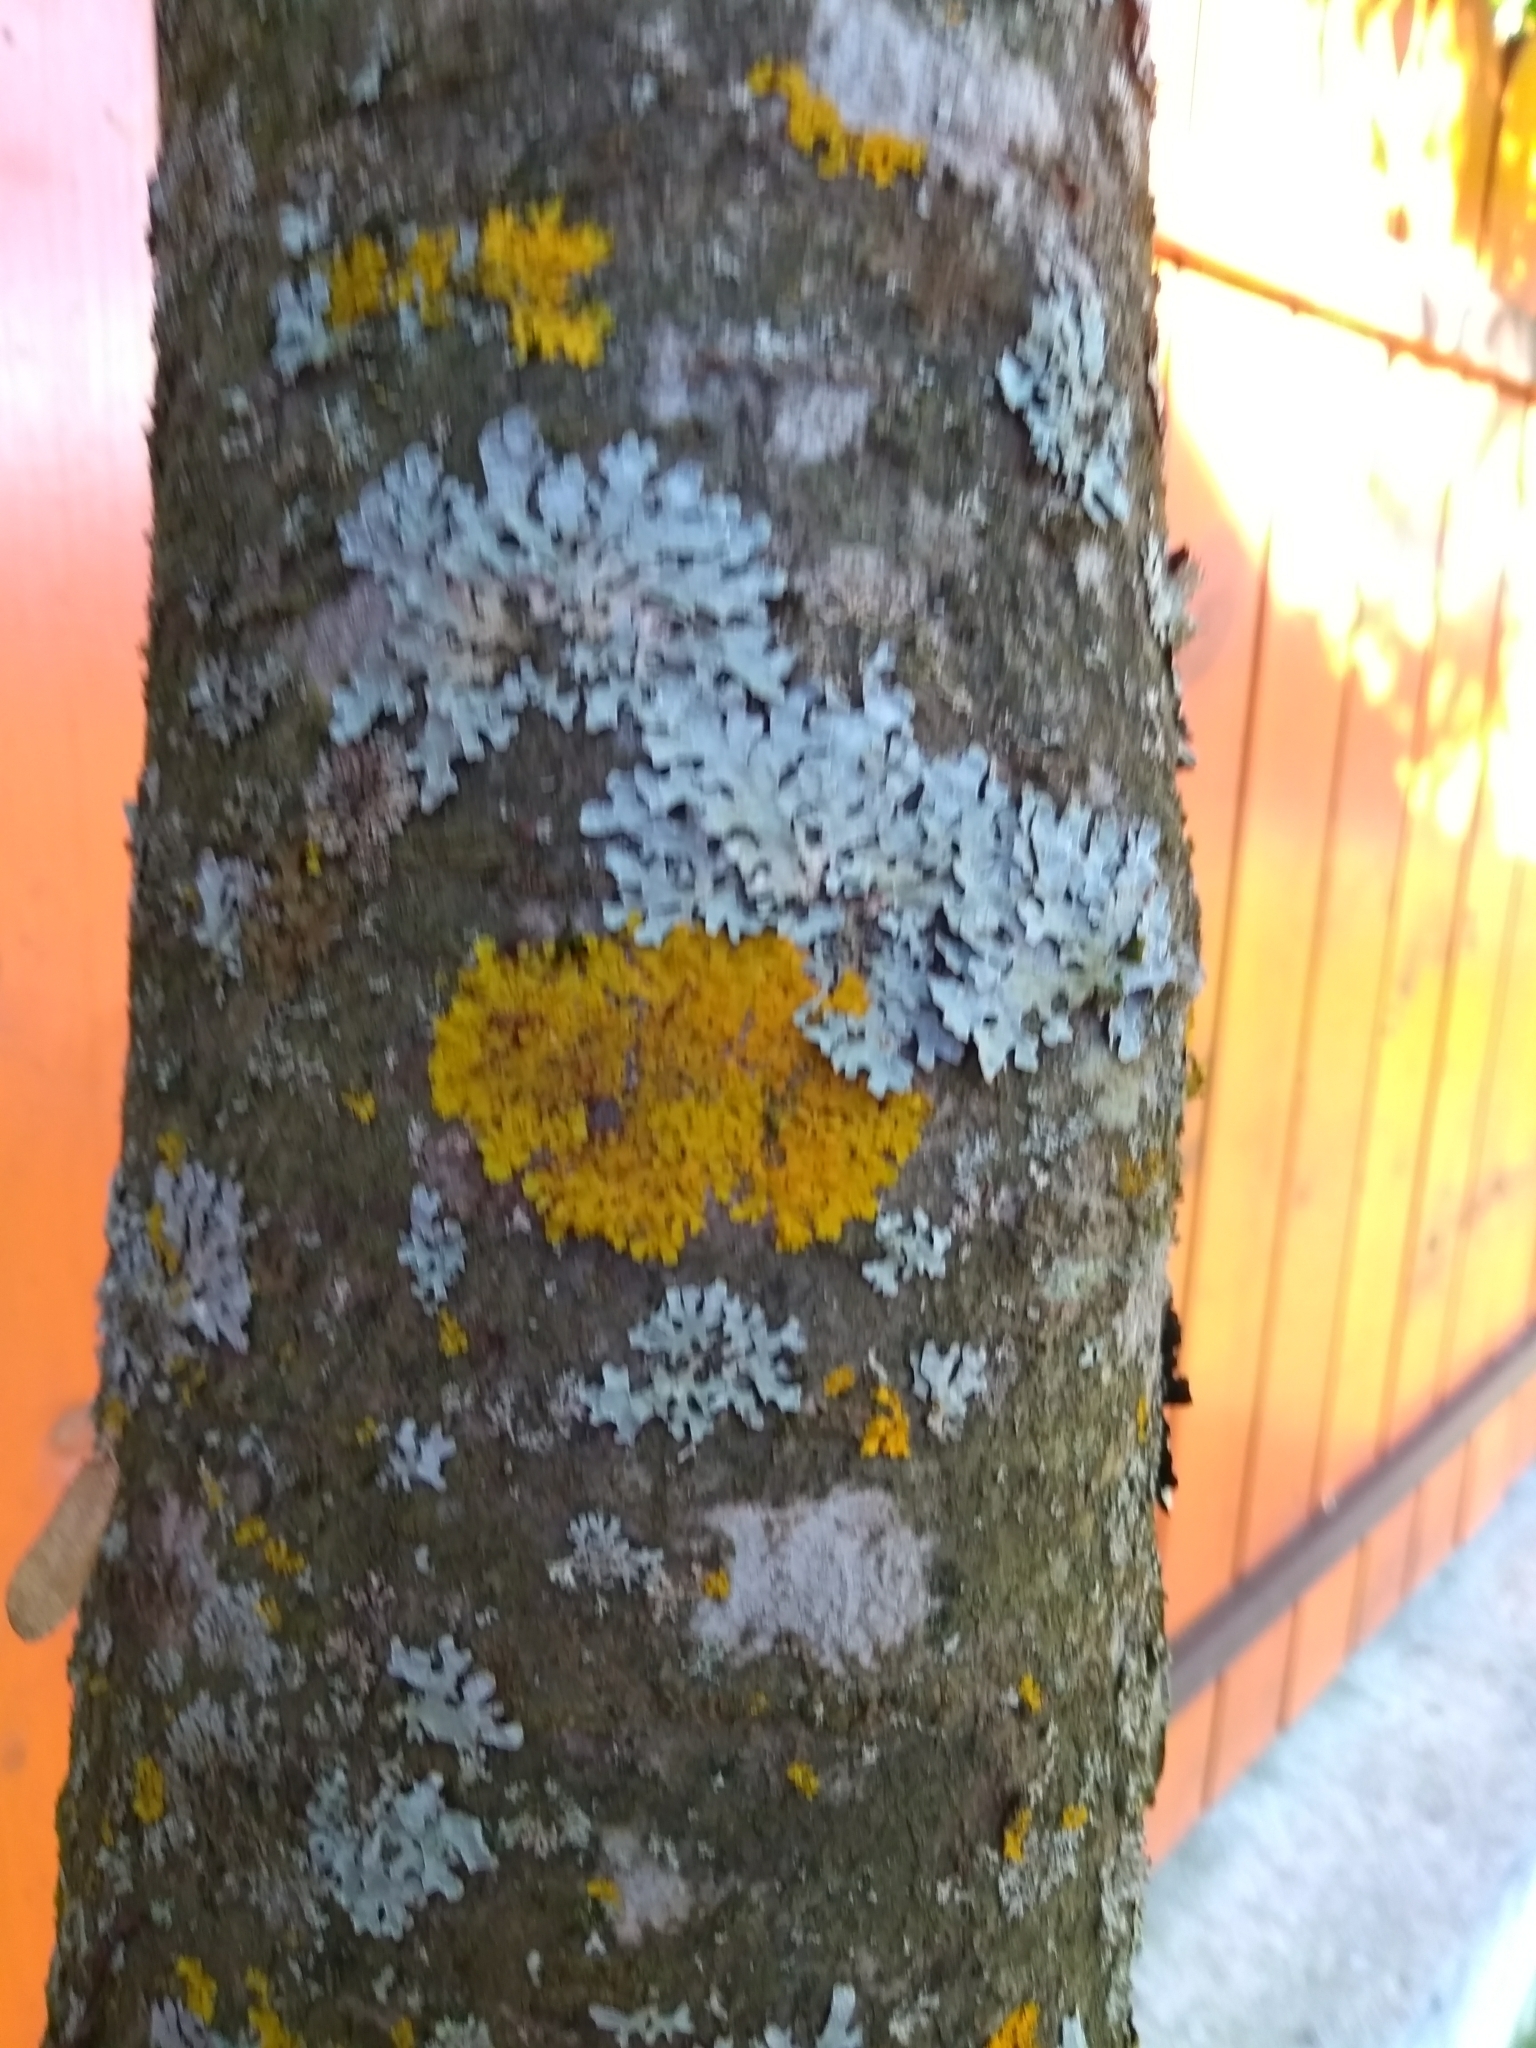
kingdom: Fungi
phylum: Ascomycota
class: Lecanoromycetes
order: Teloschistales
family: Teloschistaceae
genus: Xanthoria
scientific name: Xanthoria parietina
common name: Common orange lichen
